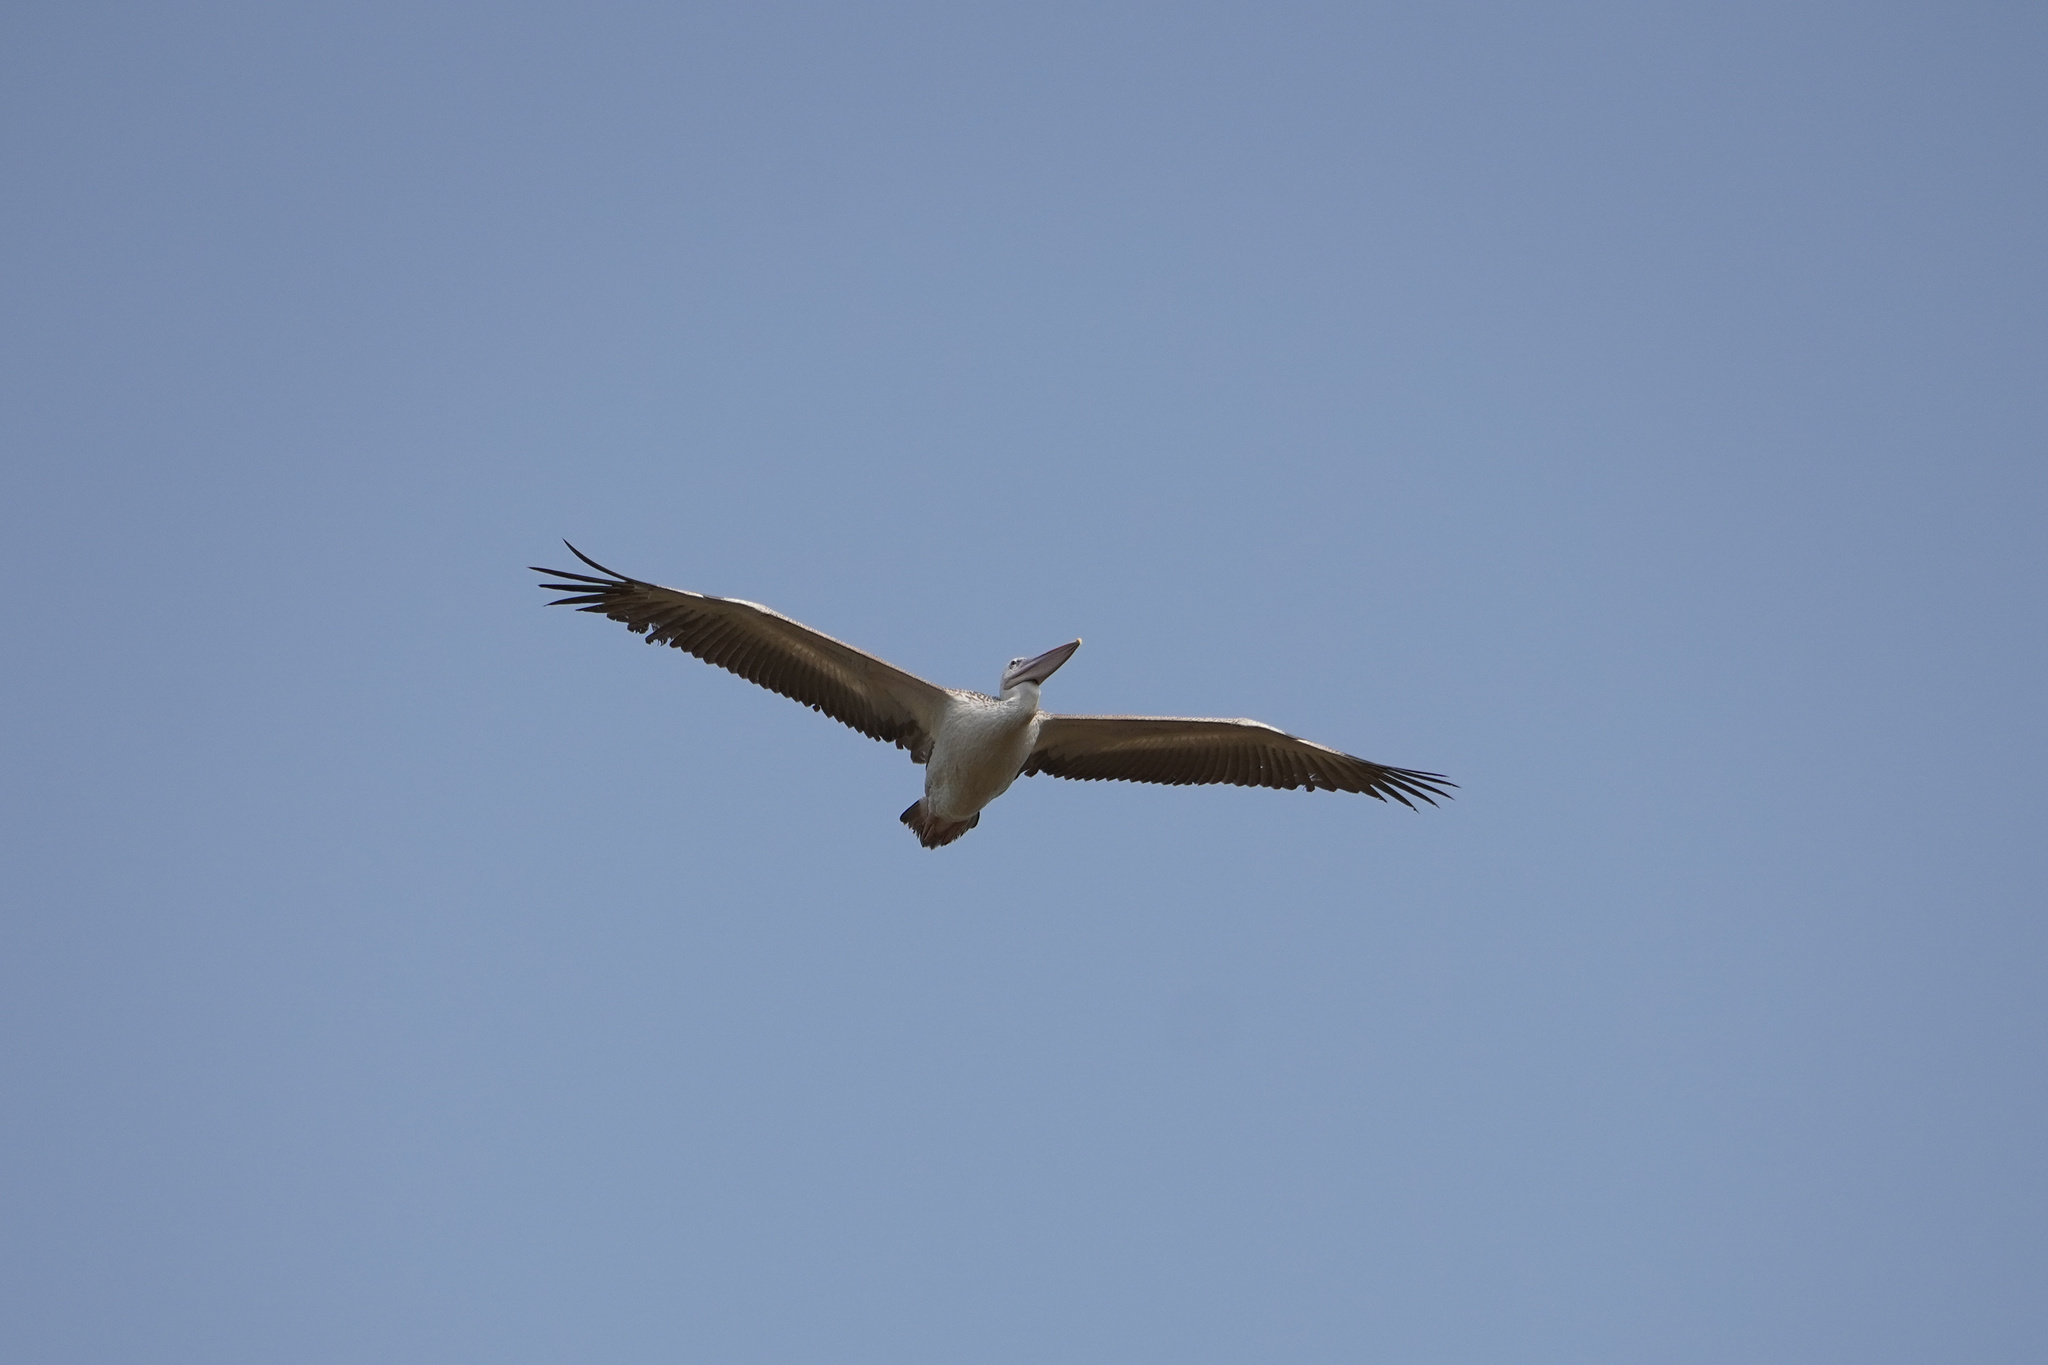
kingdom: Animalia
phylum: Chordata
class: Aves
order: Pelecaniformes
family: Pelecanidae
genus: Pelecanus
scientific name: Pelecanus rufescens
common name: Pink-backed pelican
